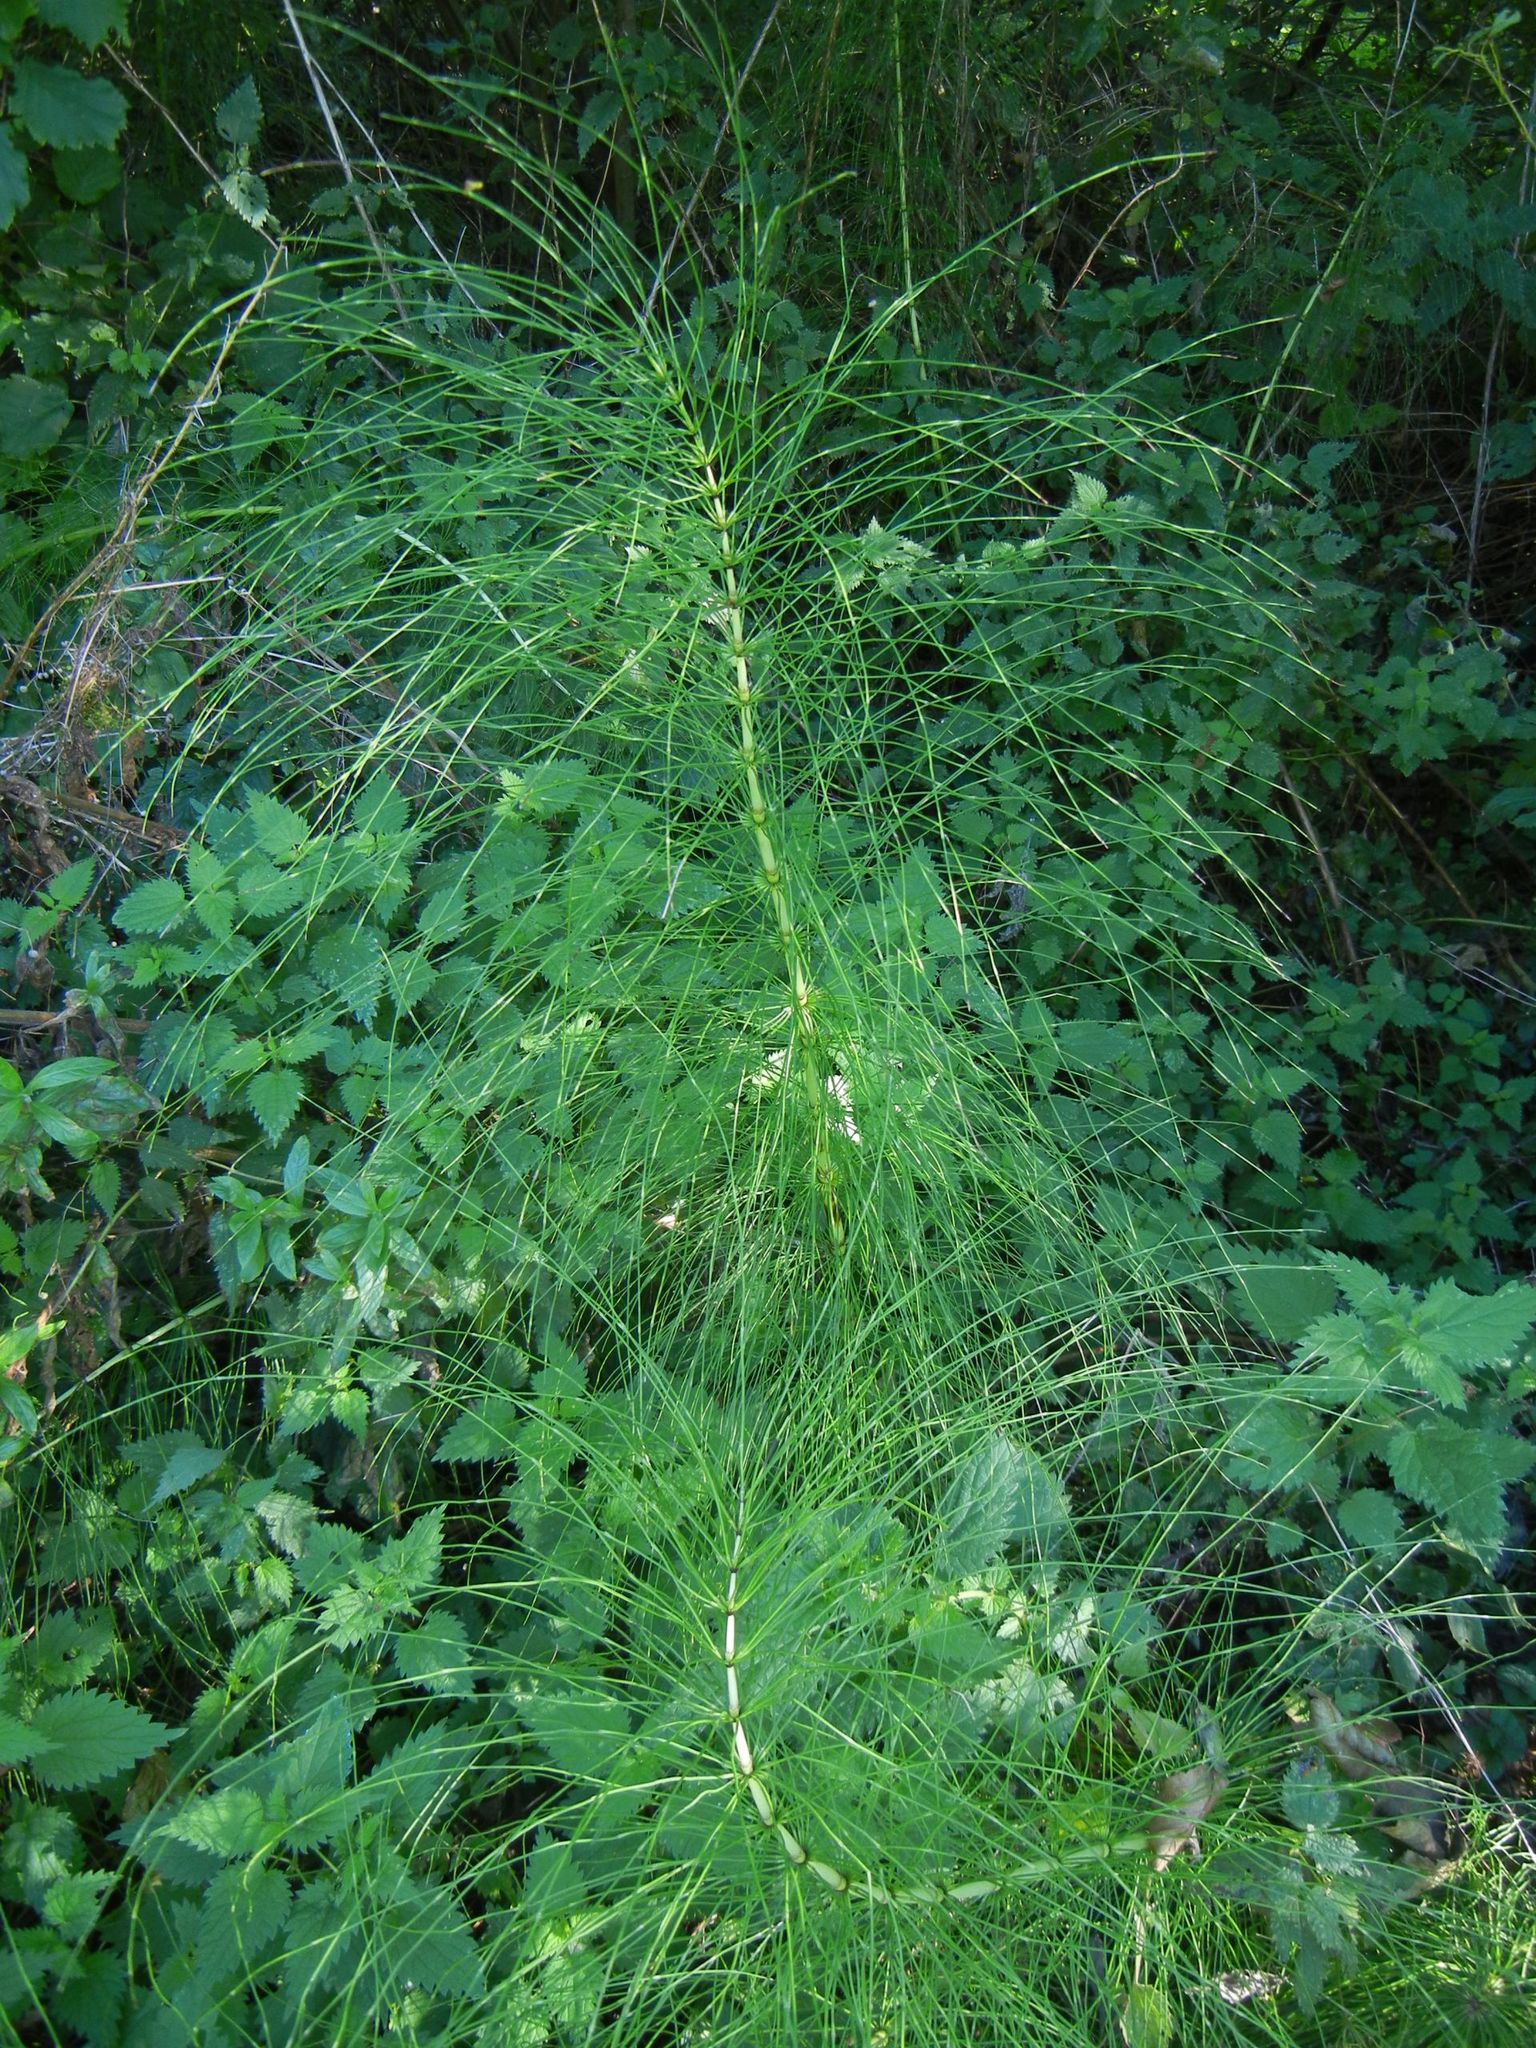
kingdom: Plantae
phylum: Tracheophyta
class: Polypodiopsida
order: Equisetales
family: Equisetaceae
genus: Equisetum
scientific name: Equisetum telmateia
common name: Great horsetail
